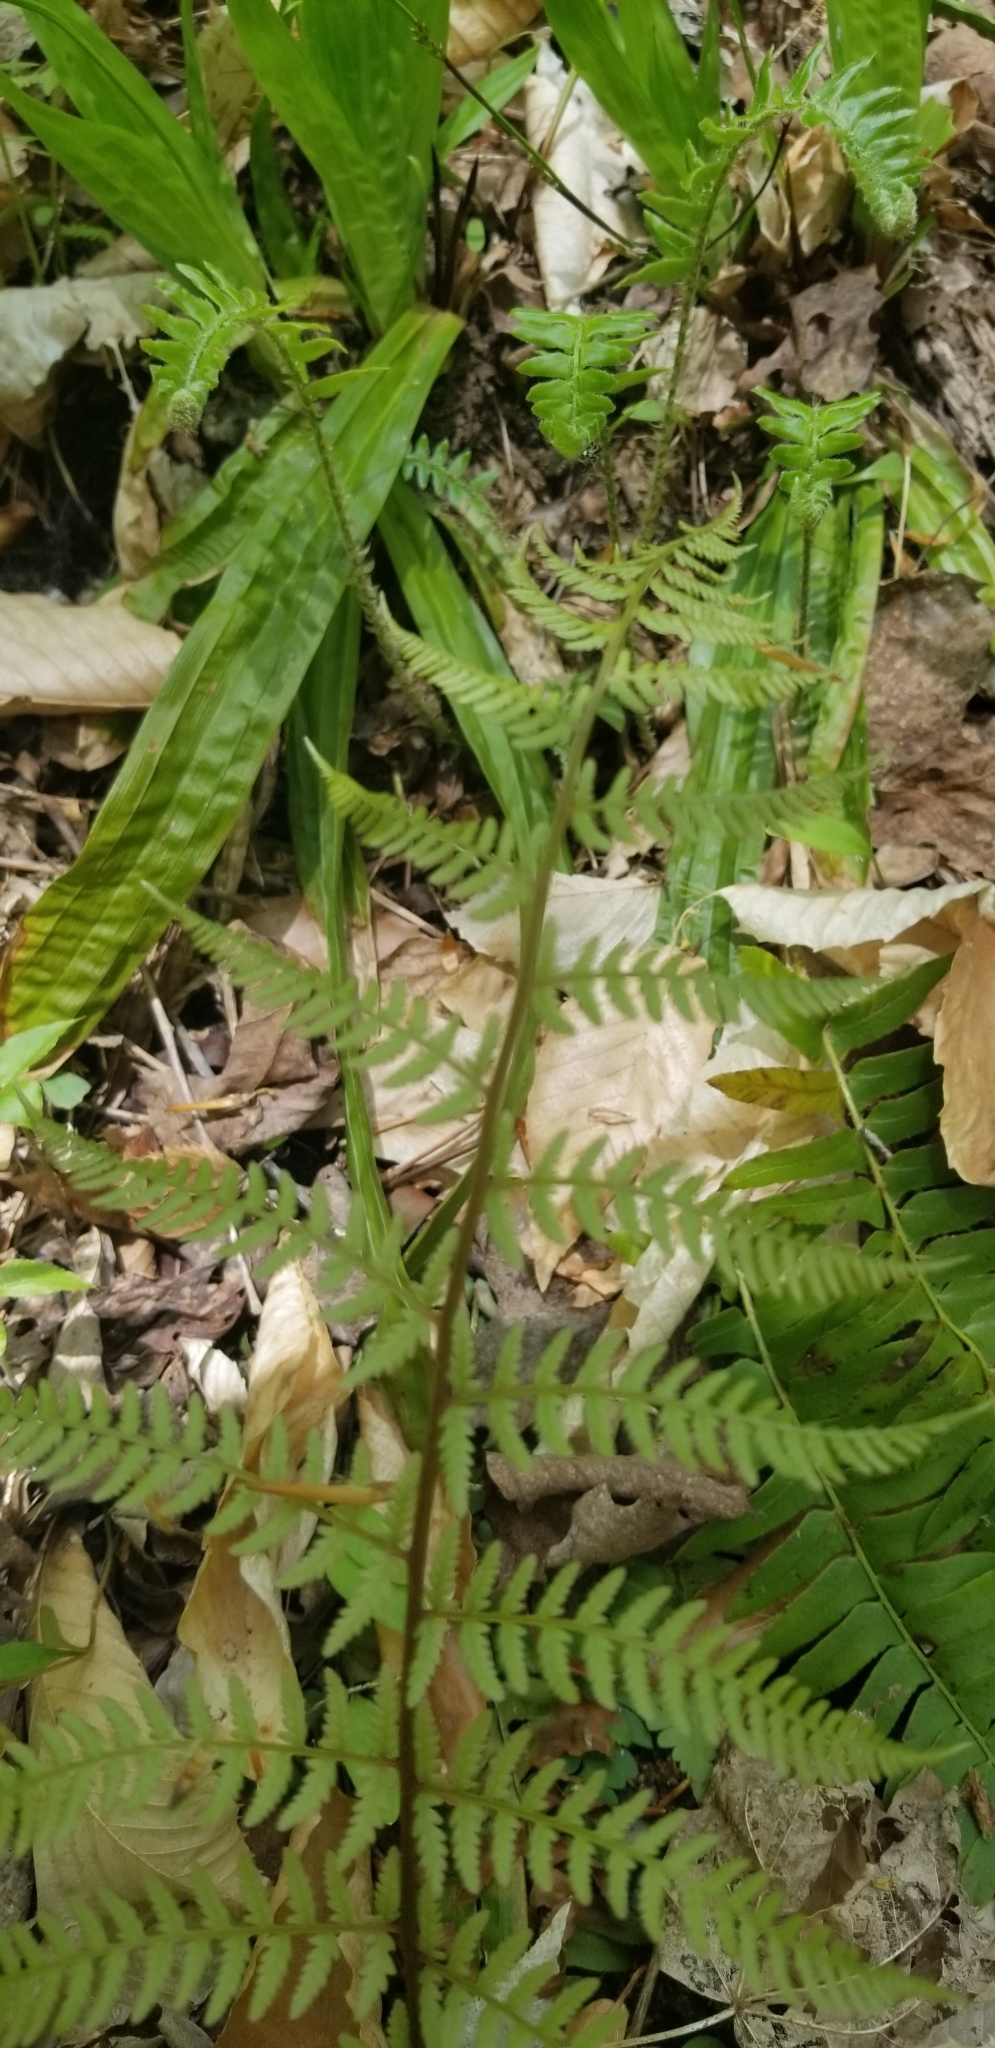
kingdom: Plantae
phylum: Tracheophyta
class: Polypodiopsida
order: Polypodiales
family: Athyriaceae
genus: Athyrium
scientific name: Athyrium angustum
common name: Northern lady fern
